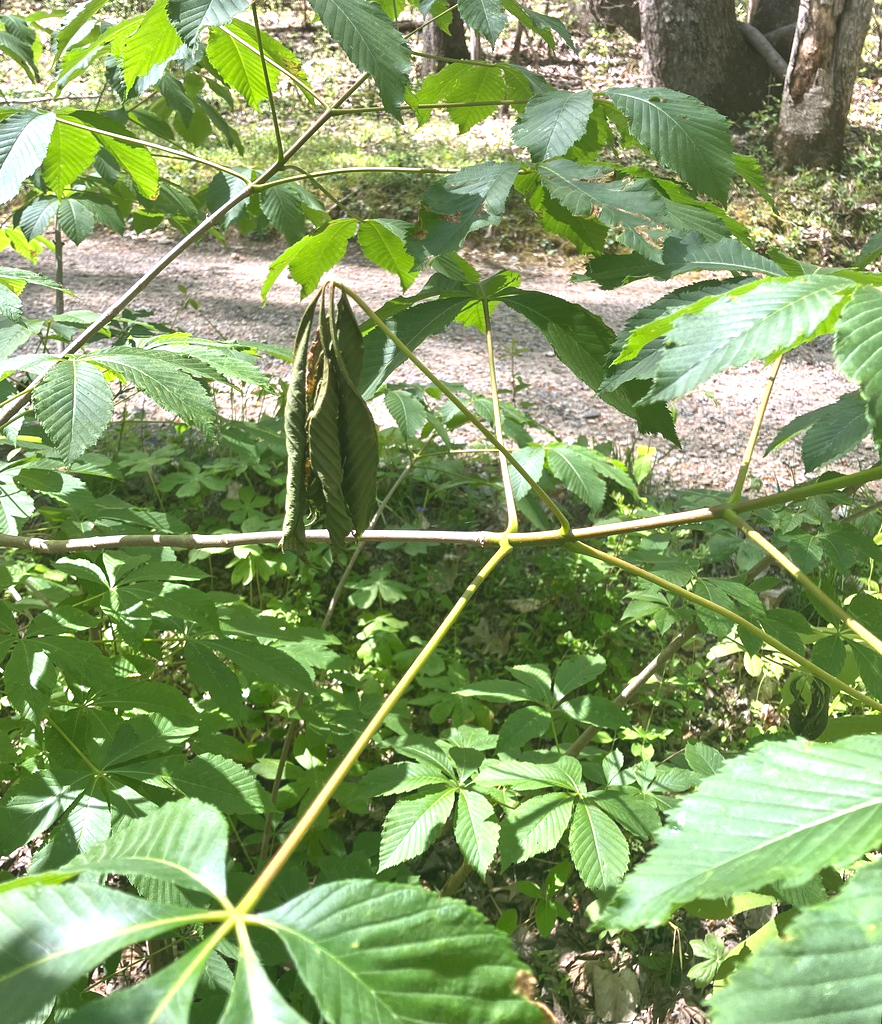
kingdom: Animalia
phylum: Arthropoda
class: Insecta
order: Lepidoptera
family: Tortricidae
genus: Zeiraphera
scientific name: Zeiraphera claypoleana
